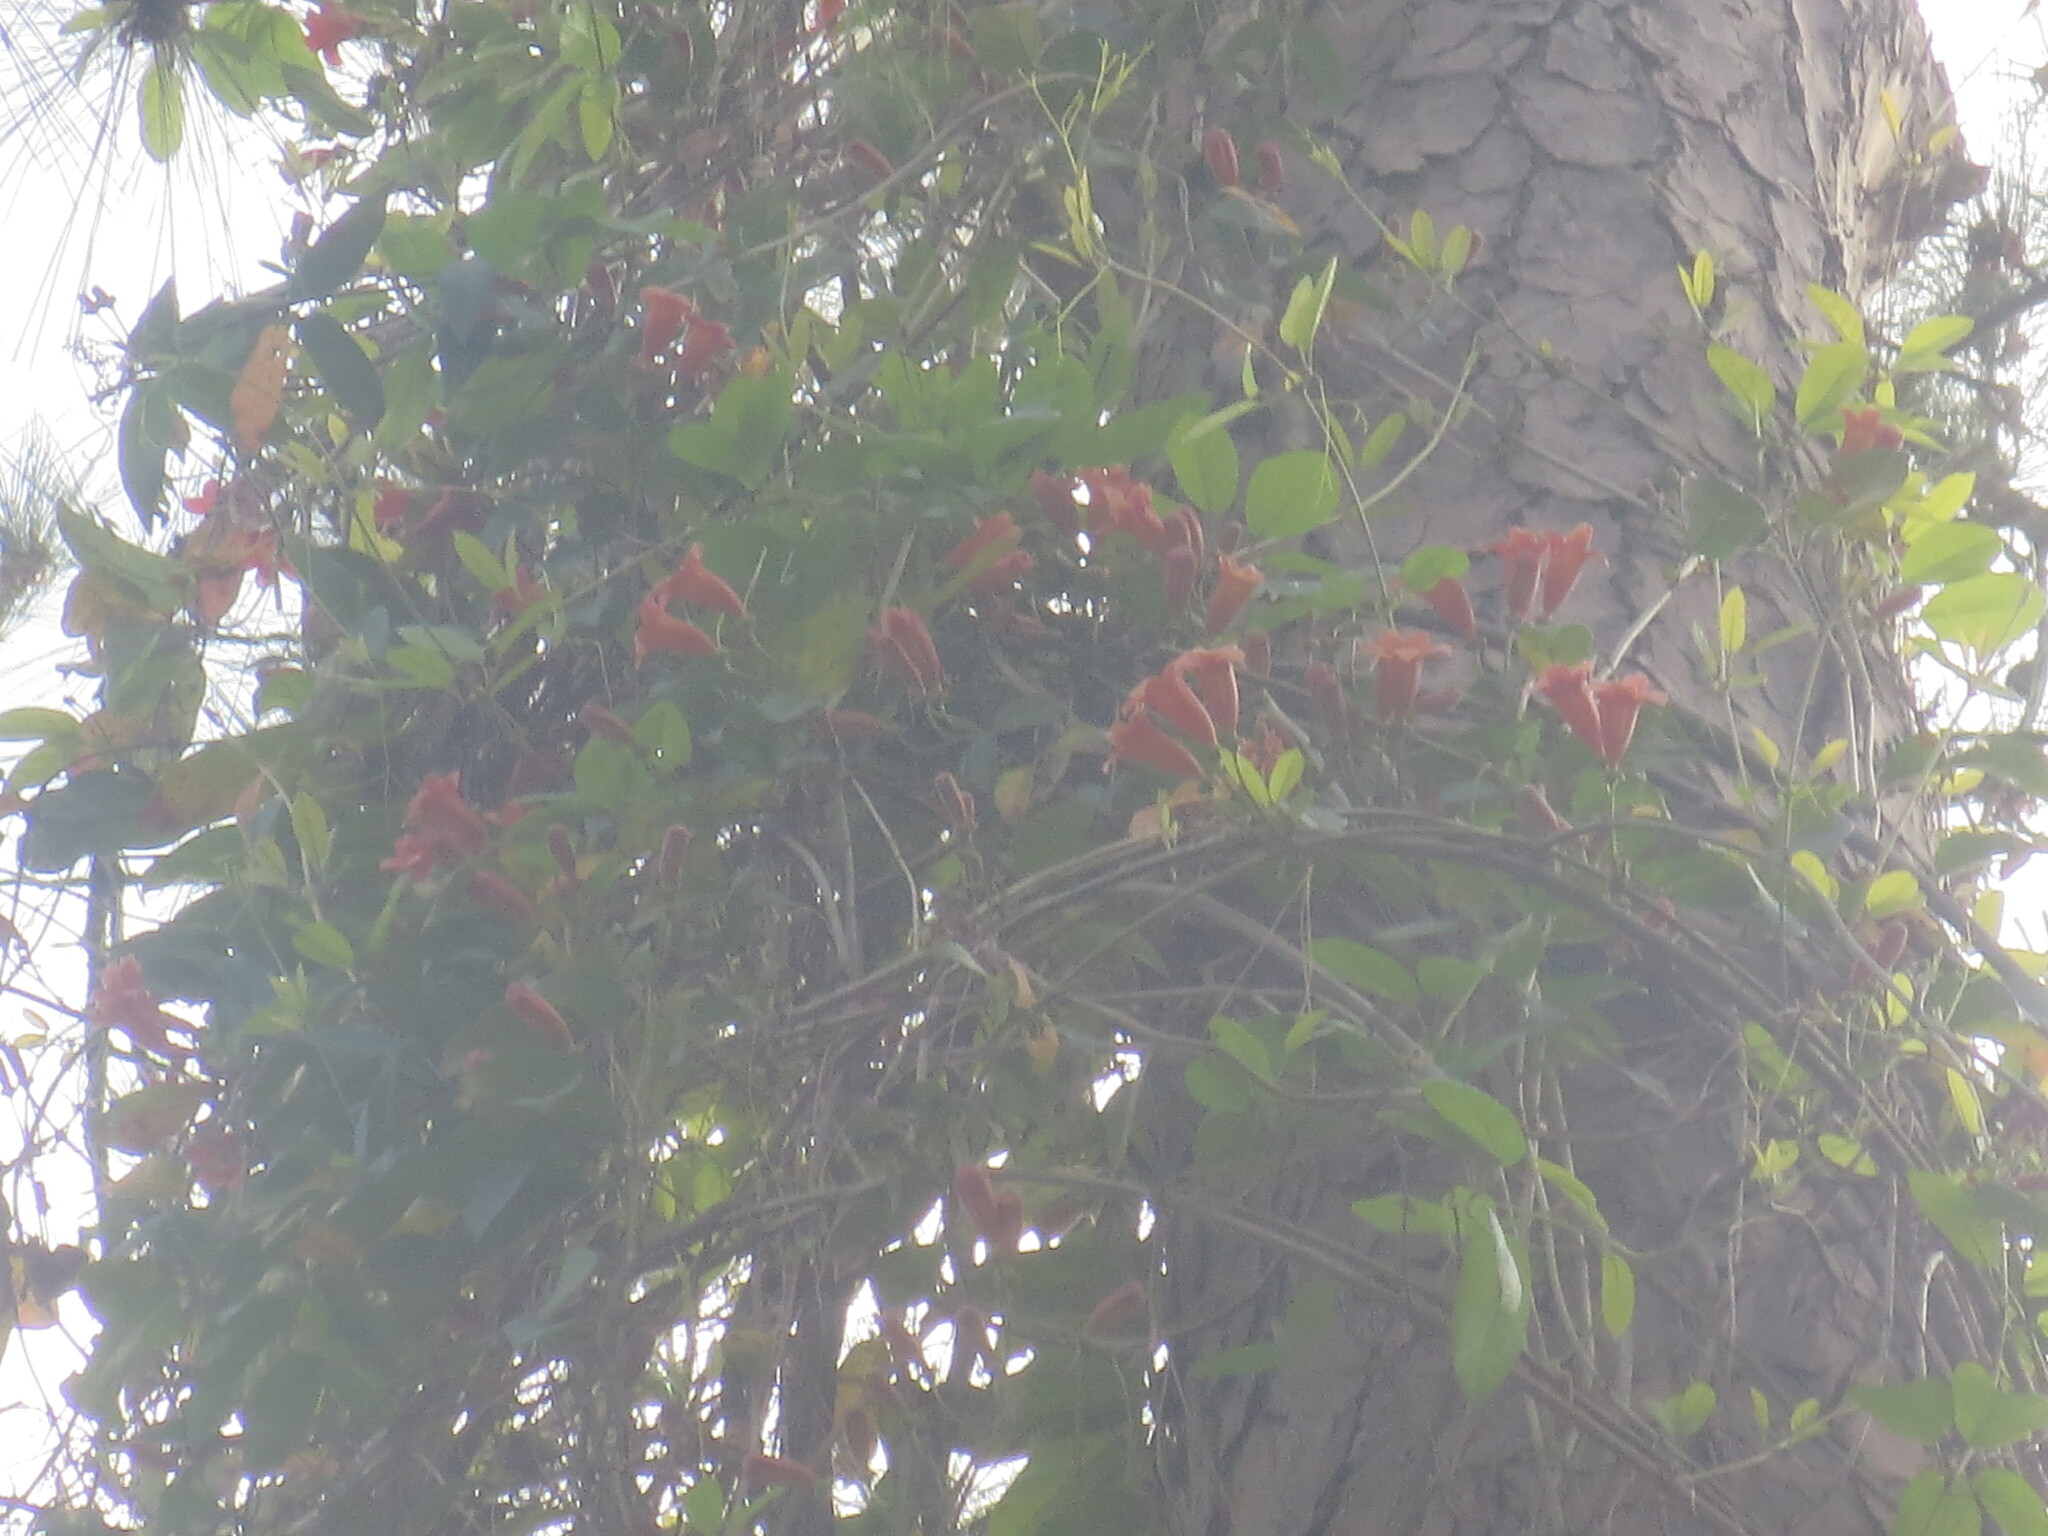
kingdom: Plantae
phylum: Tracheophyta
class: Magnoliopsida
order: Lamiales
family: Bignoniaceae
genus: Bignonia
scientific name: Bignonia capreolata
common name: Crossvine
